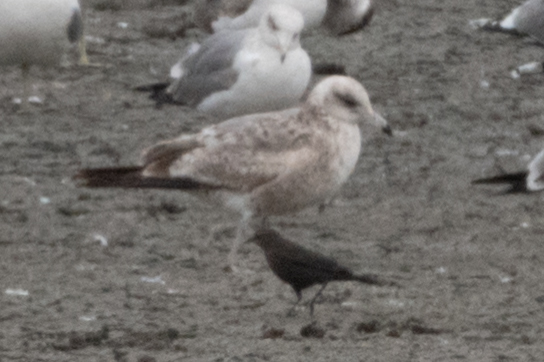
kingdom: Animalia
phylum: Chordata
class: Aves
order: Charadriiformes
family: Laridae
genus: Larus
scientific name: Larus californicus
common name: California gull
